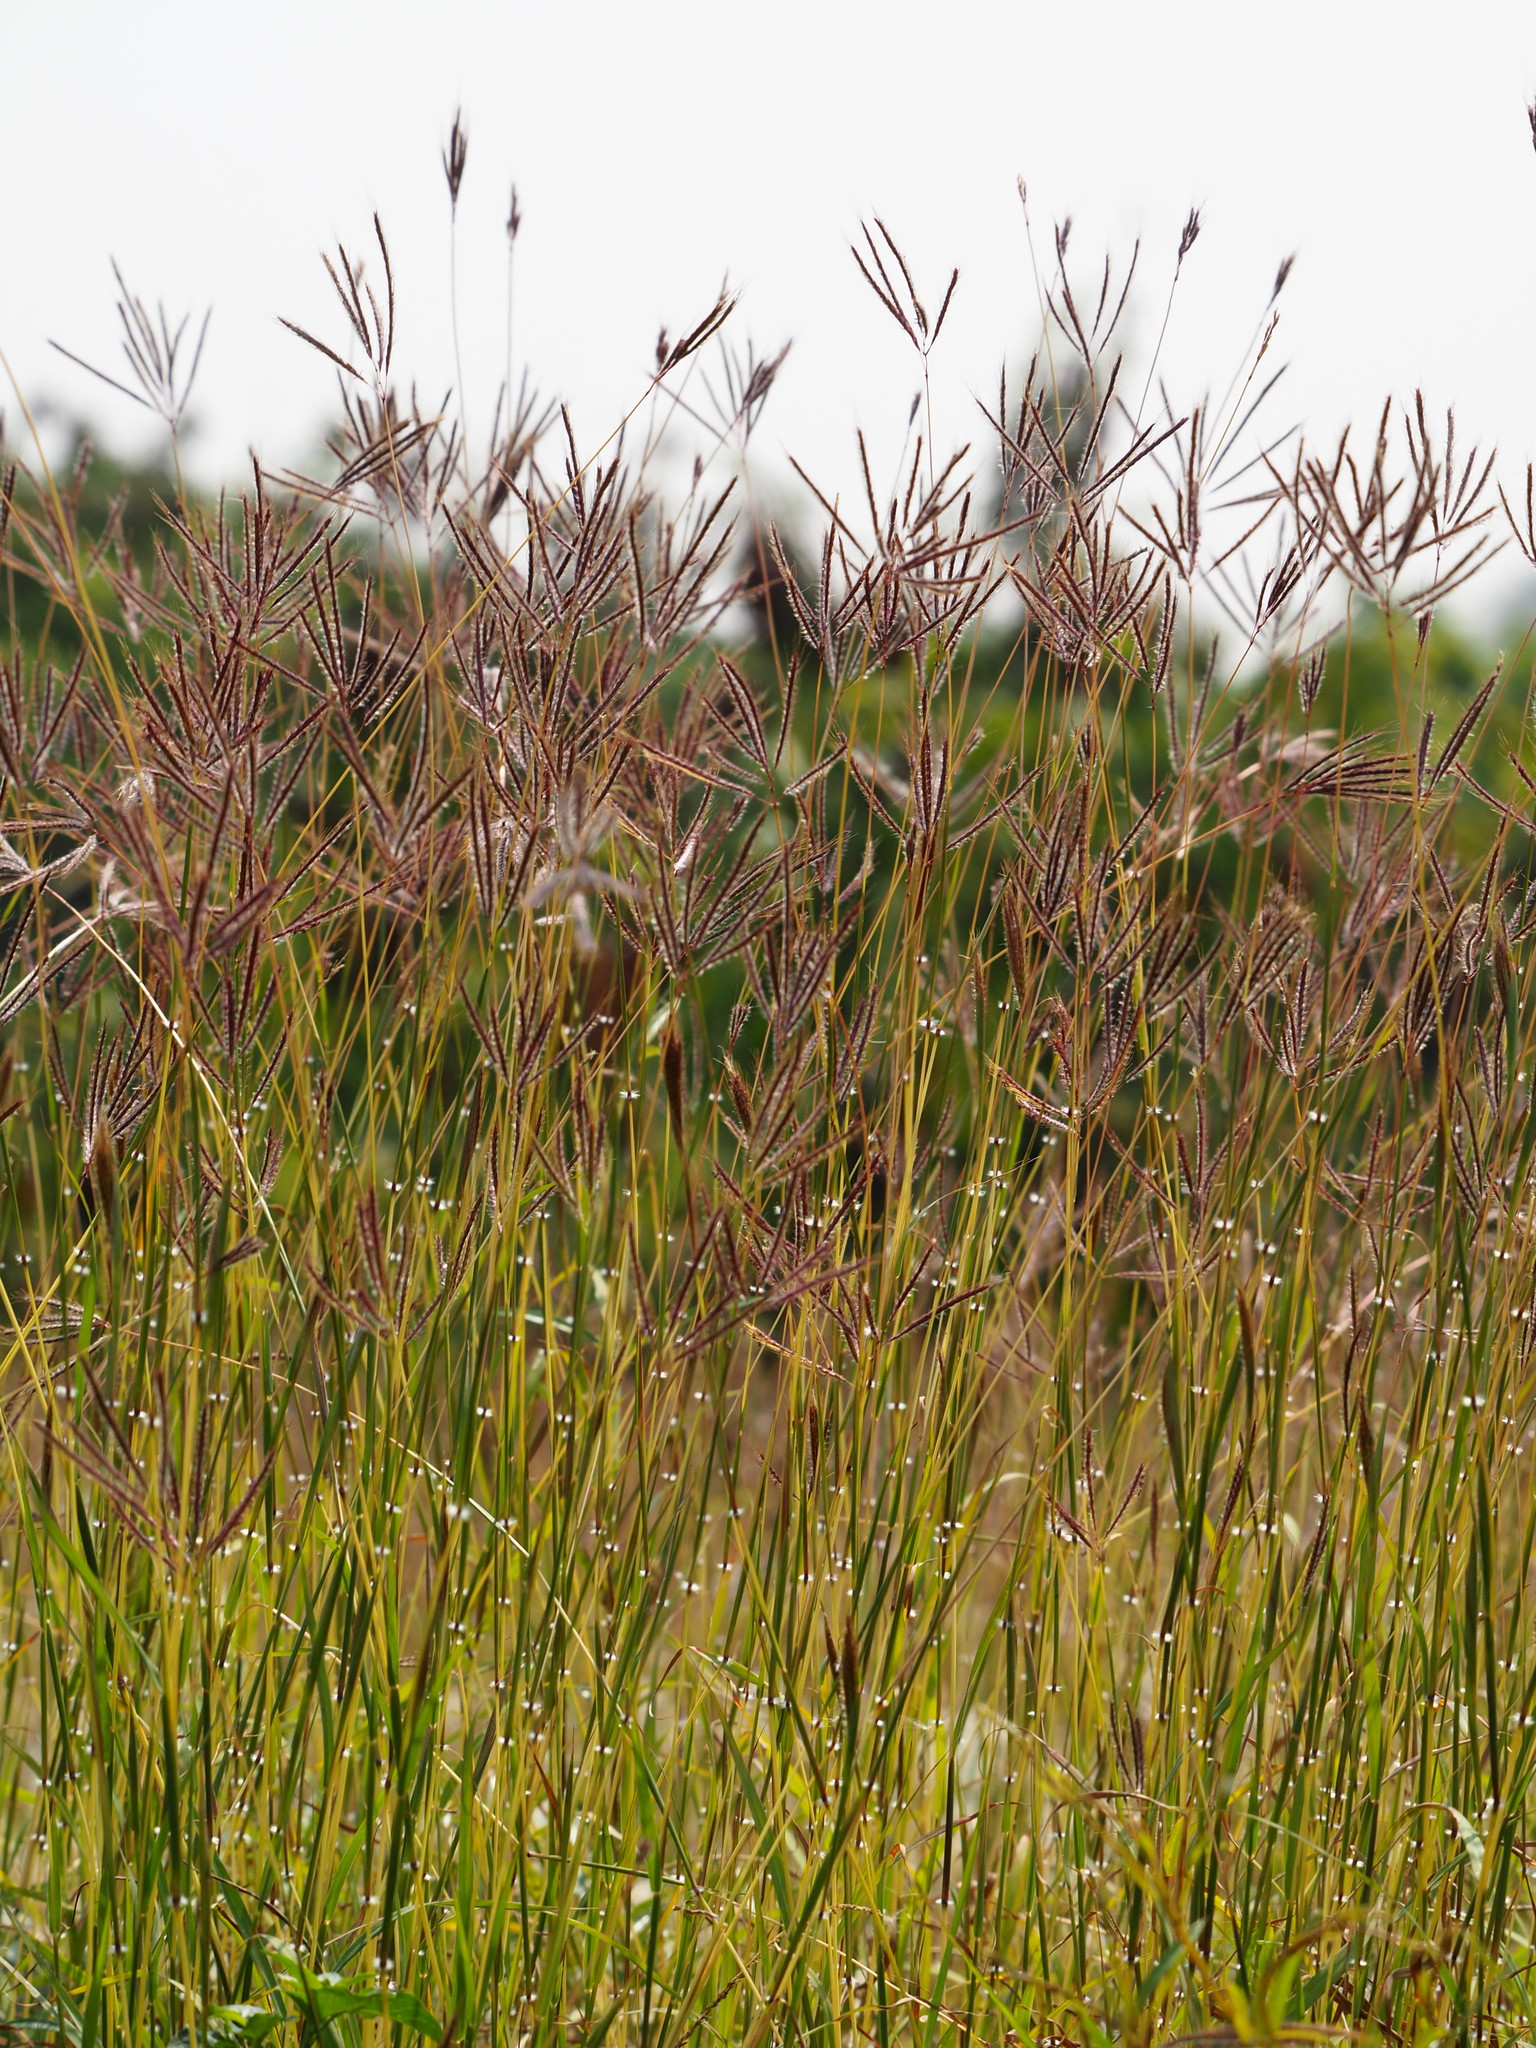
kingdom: Plantae
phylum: Tracheophyta
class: Liliopsida
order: Poales
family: Poaceae
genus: Dichanthium
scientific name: Dichanthium annulatum
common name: Kleberg's bluestem
